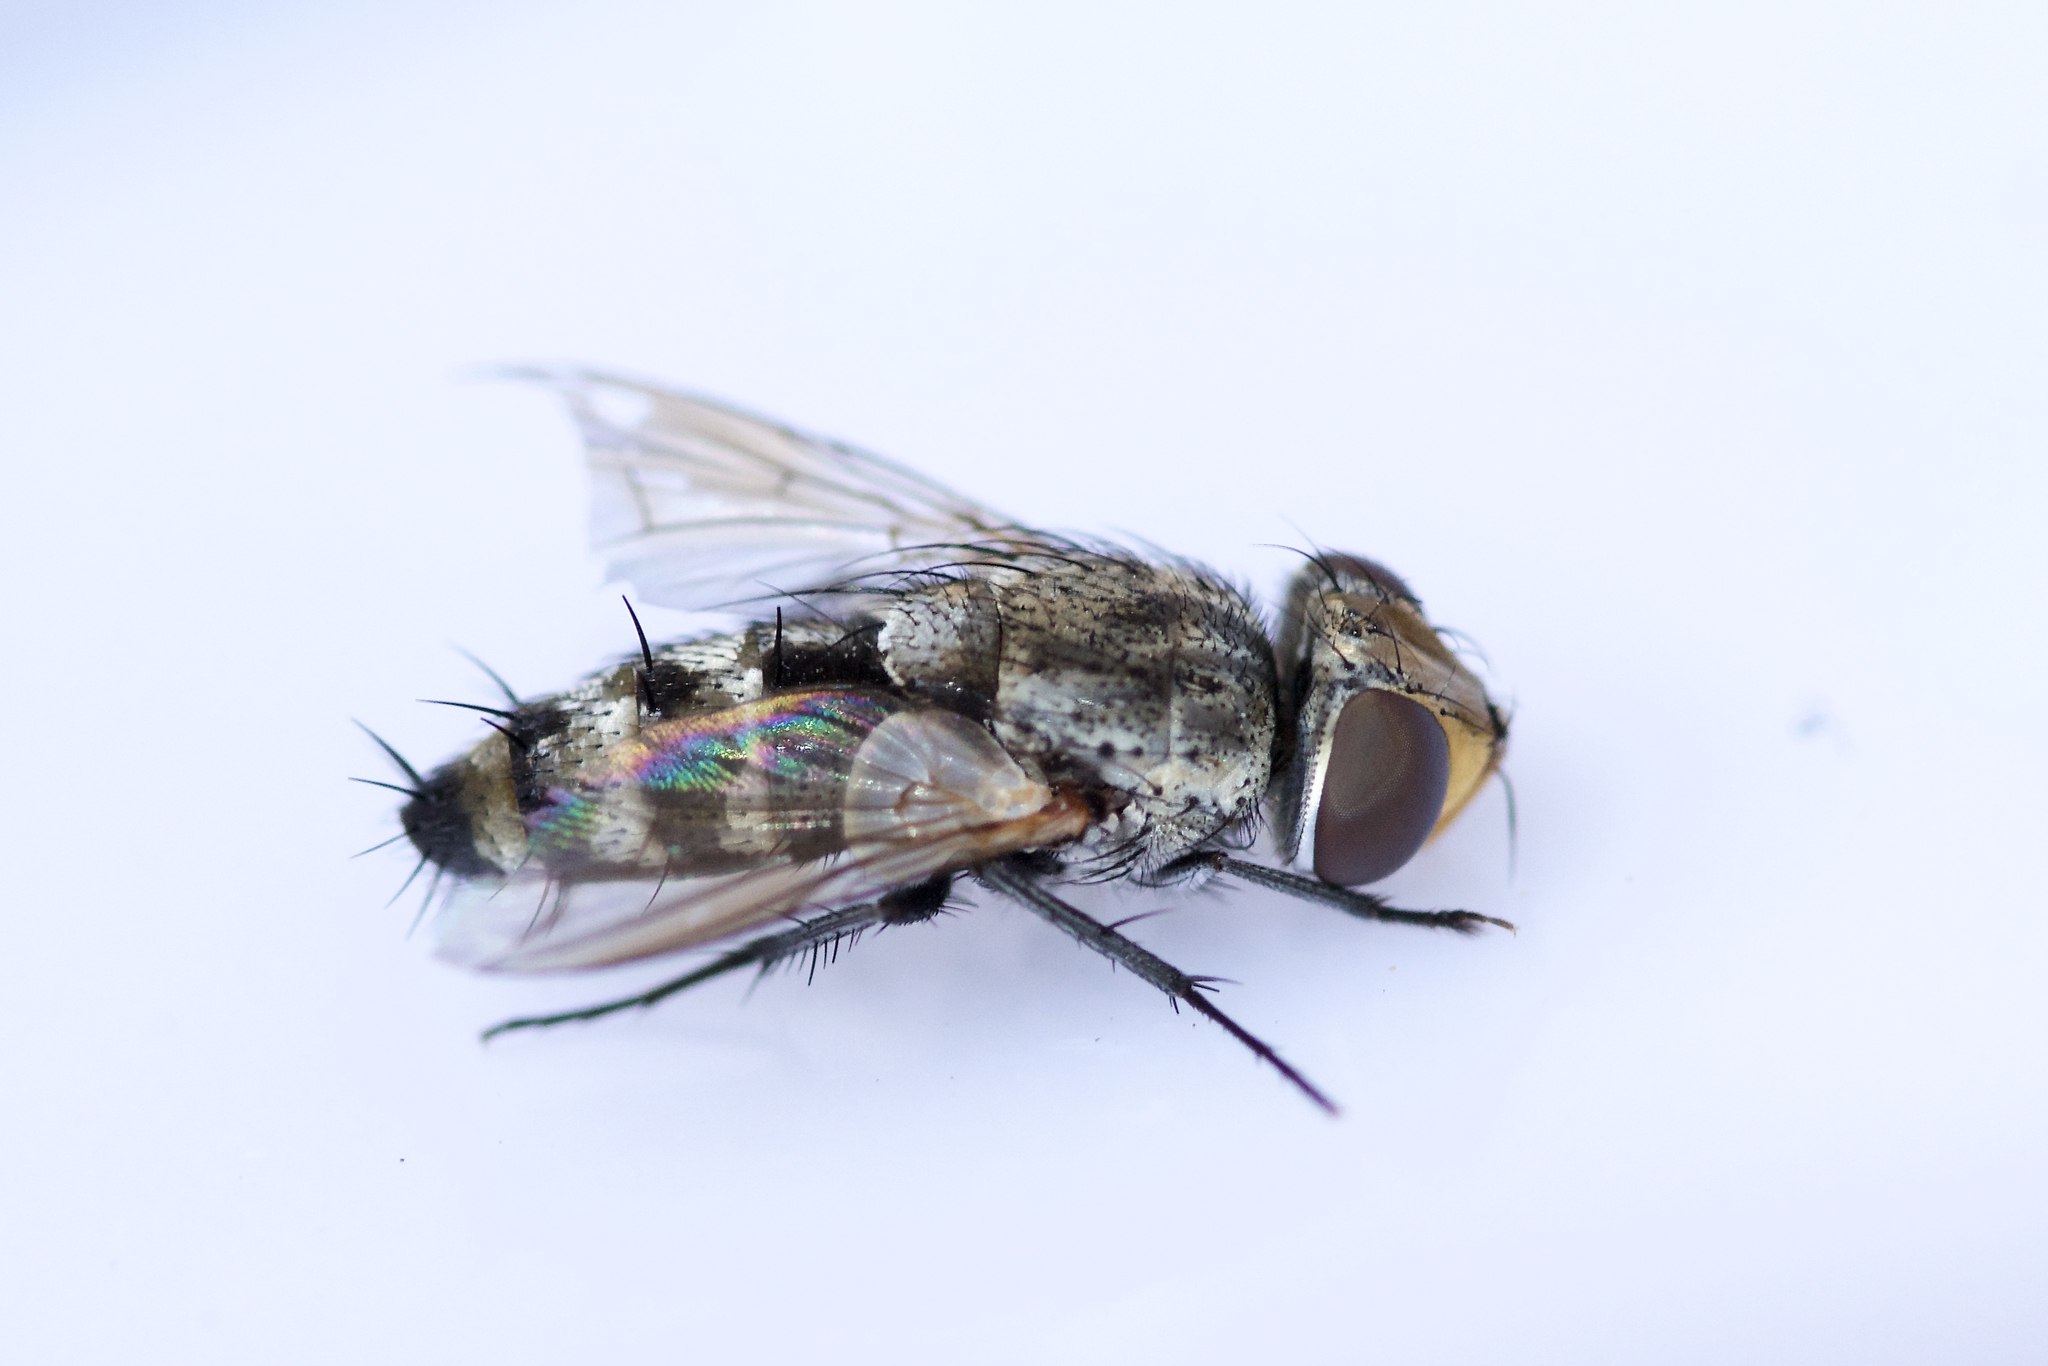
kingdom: Animalia
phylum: Arthropoda
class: Insecta
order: Diptera
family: Sarcophagidae
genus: Phrosinella
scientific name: Phrosinella aurifacies
